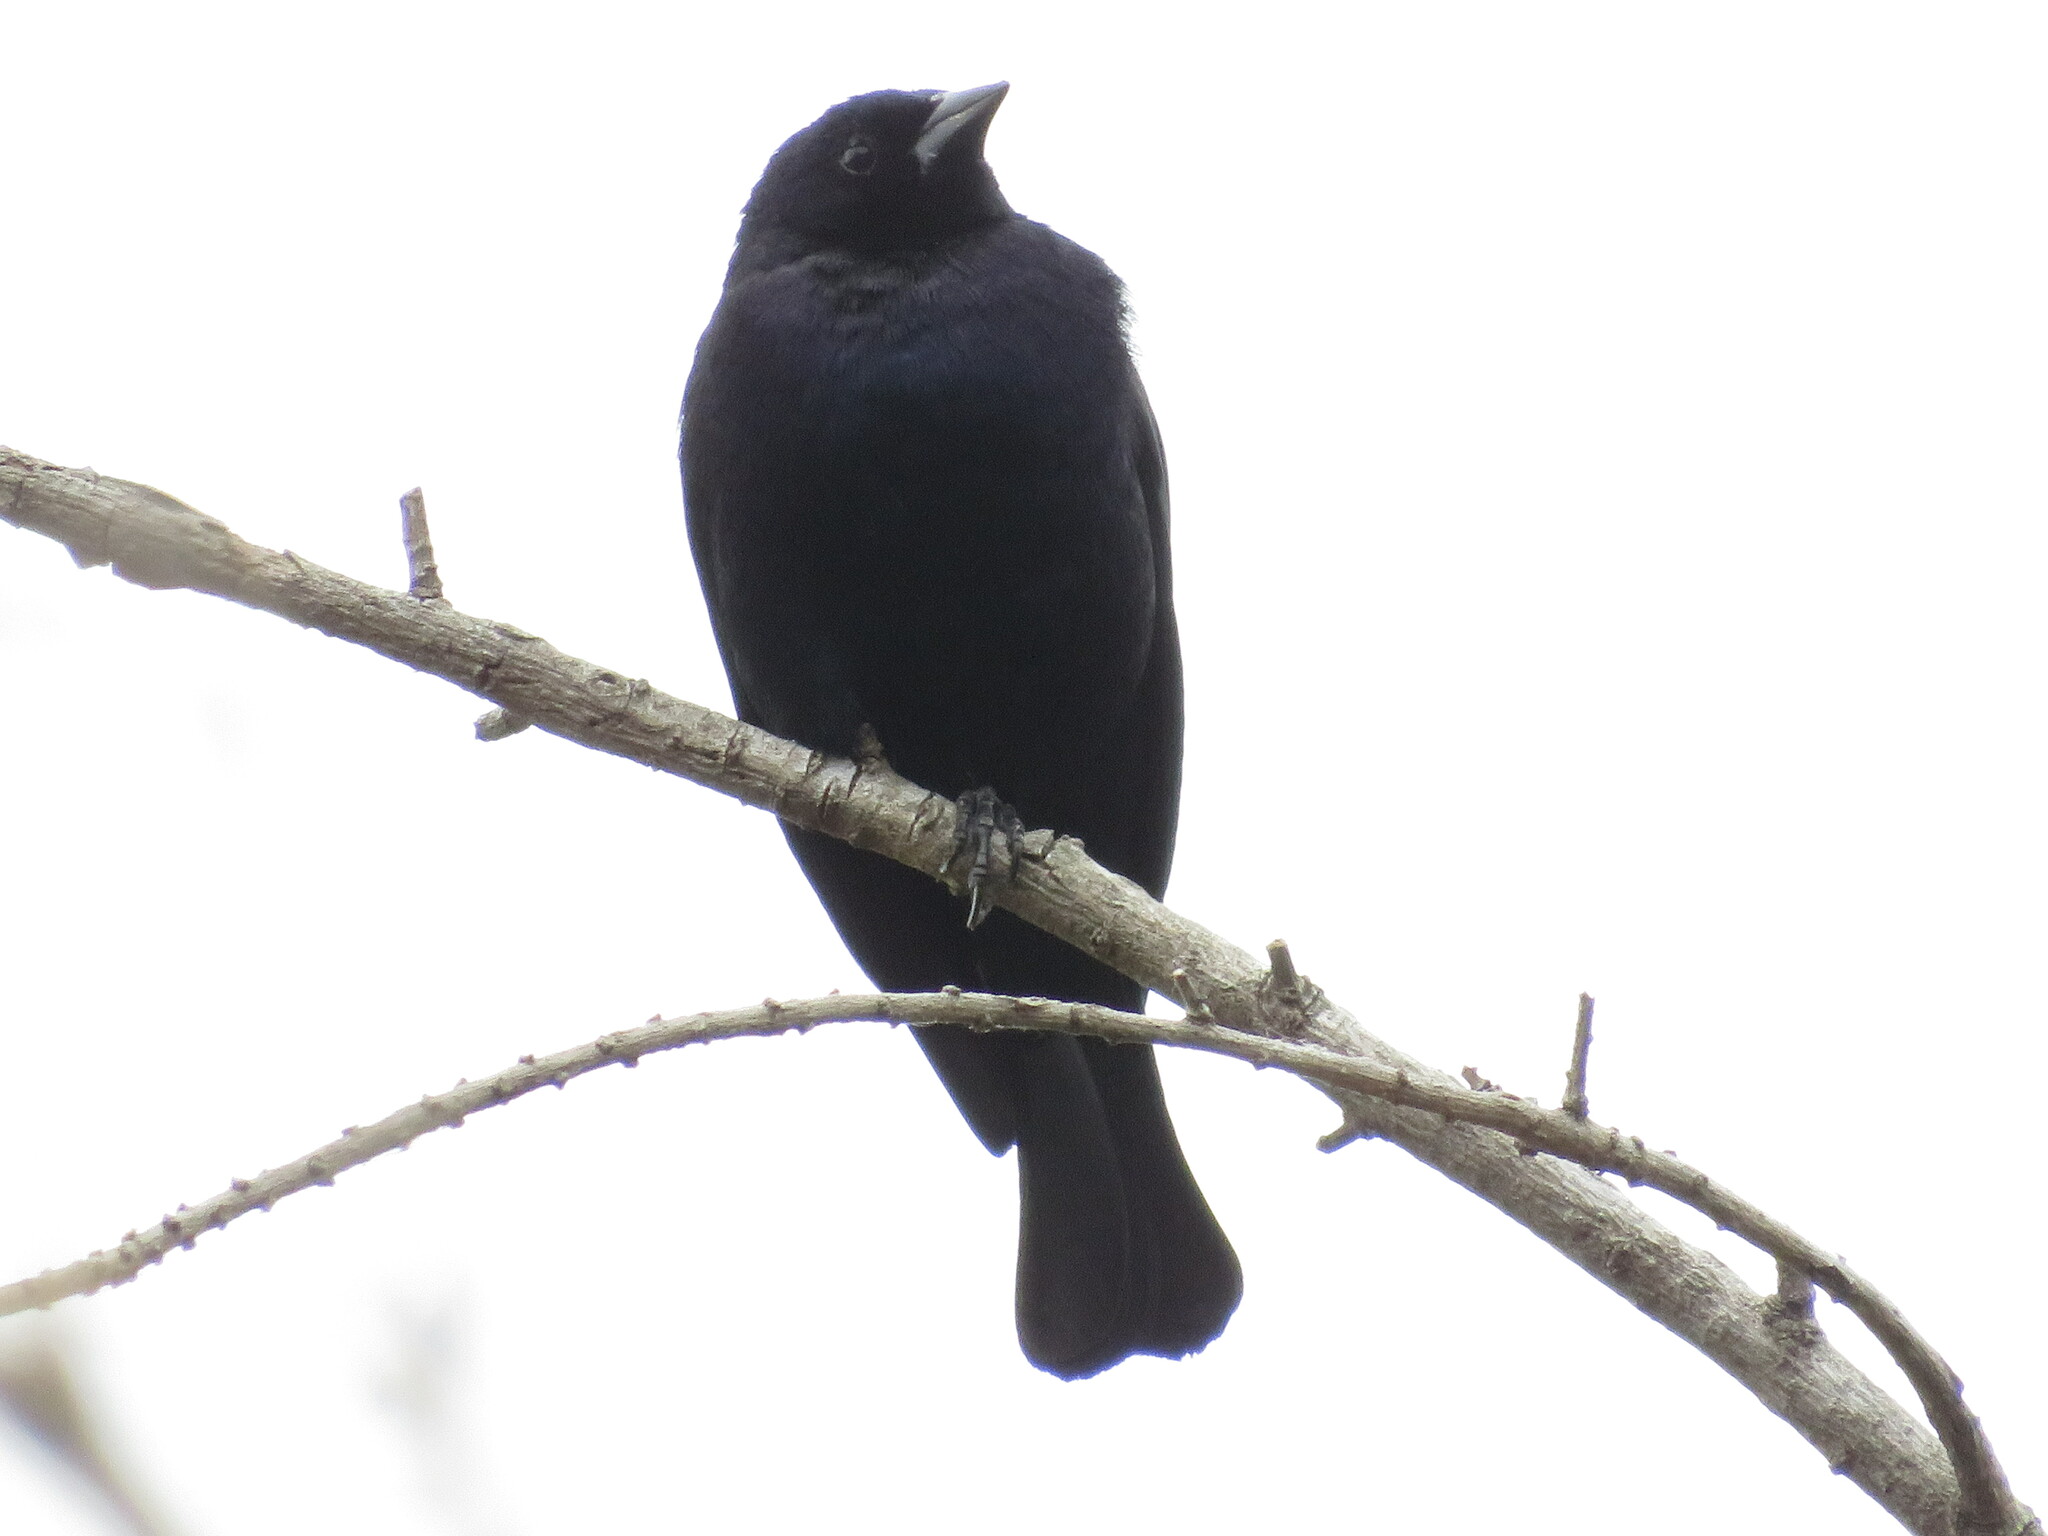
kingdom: Animalia
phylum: Chordata
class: Aves
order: Passeriformes
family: Thraupidae
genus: Tachyphonus
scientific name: Tachyphonus rufus
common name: White-lined tanager
